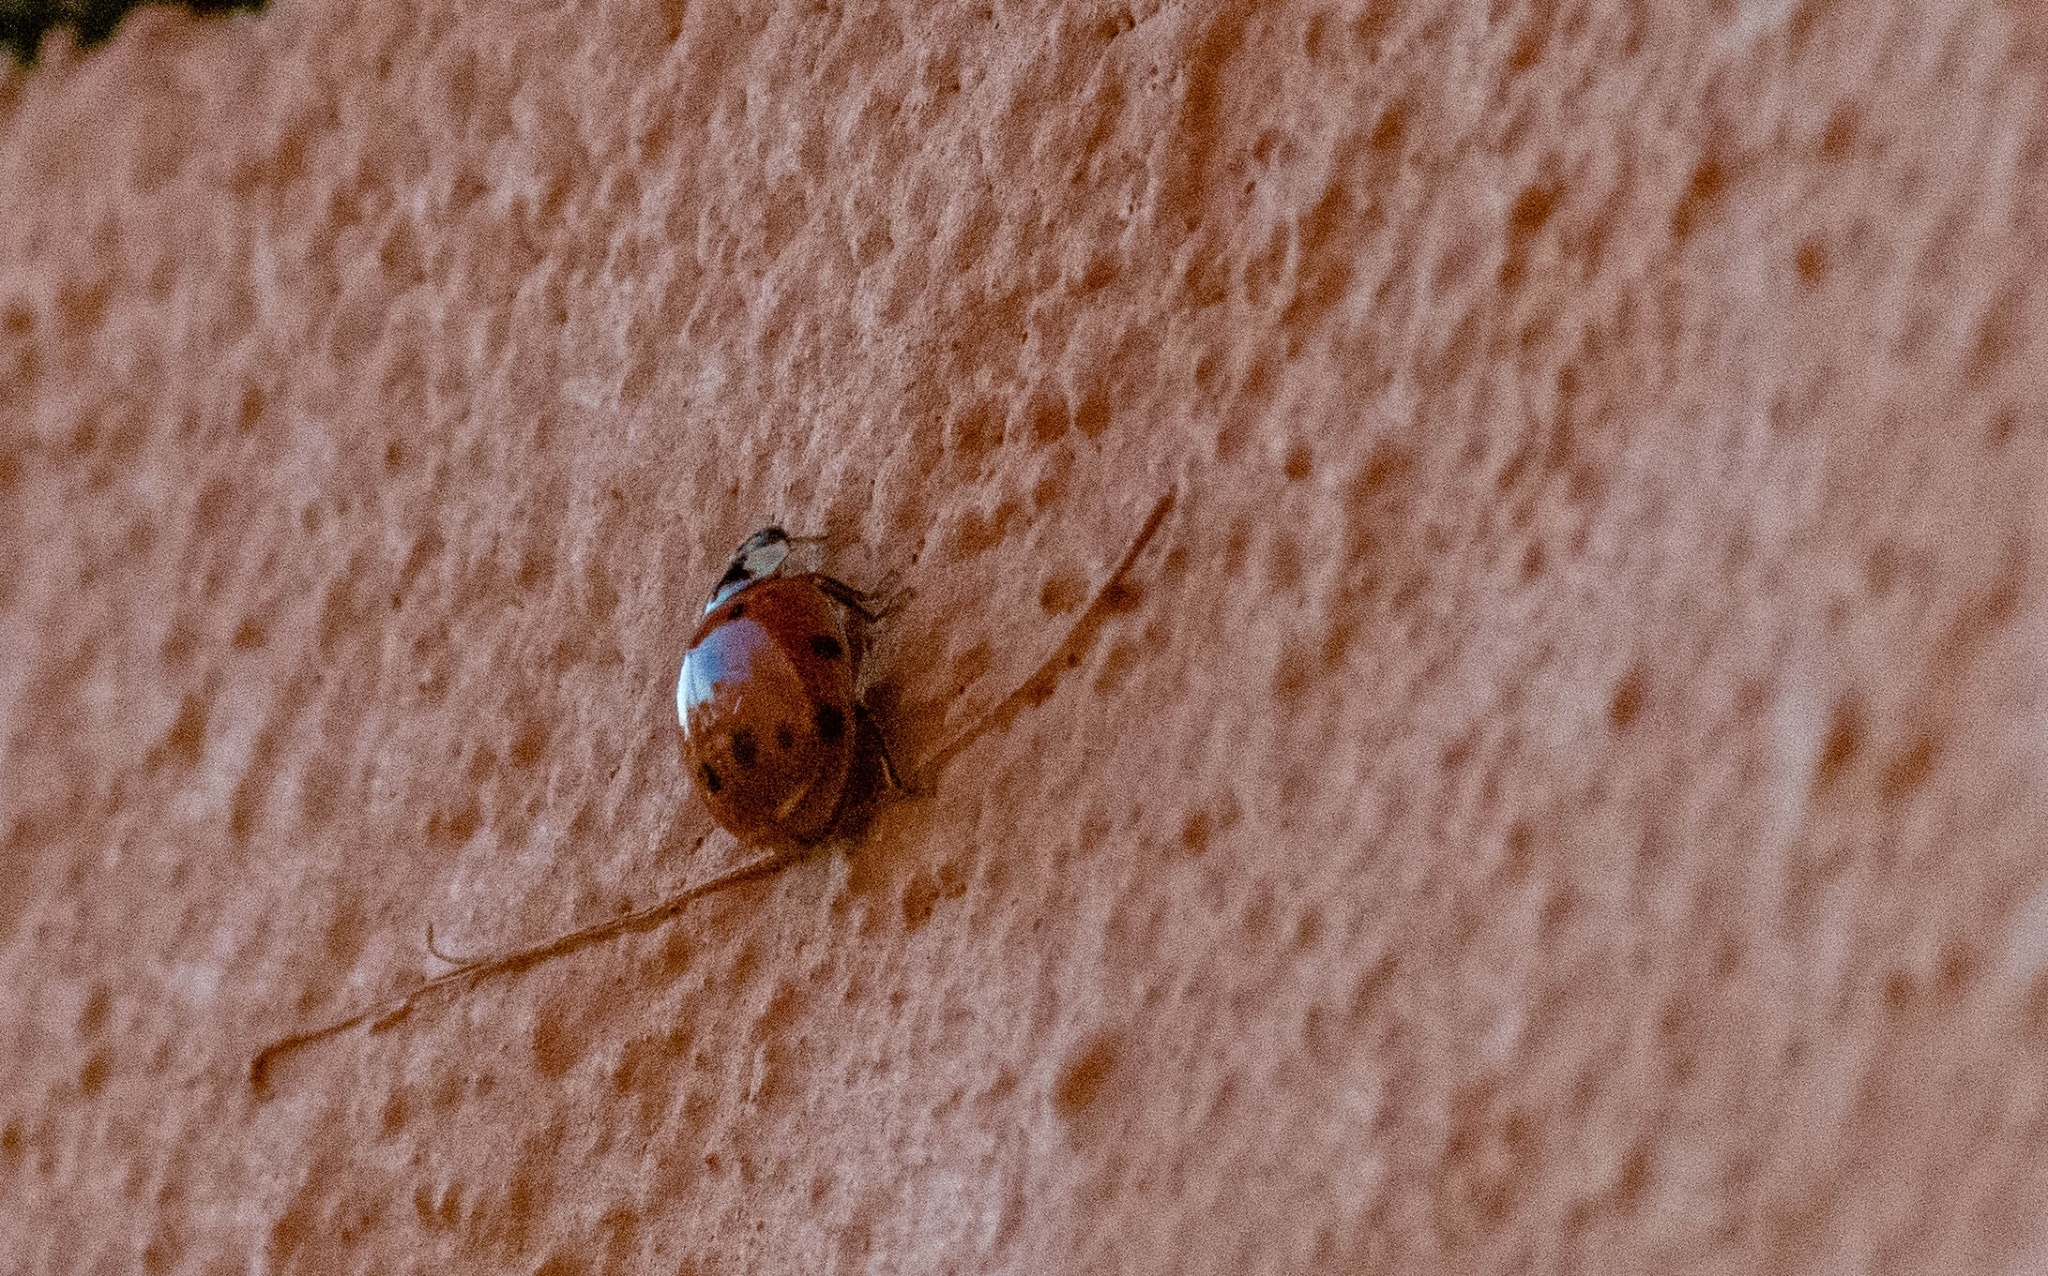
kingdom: Animalia
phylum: Arthropoda
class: Insecta
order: Coleoptera
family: Coccinellidae
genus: Harmonia
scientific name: Harmonia axyridis
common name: Harlequin ladybird
